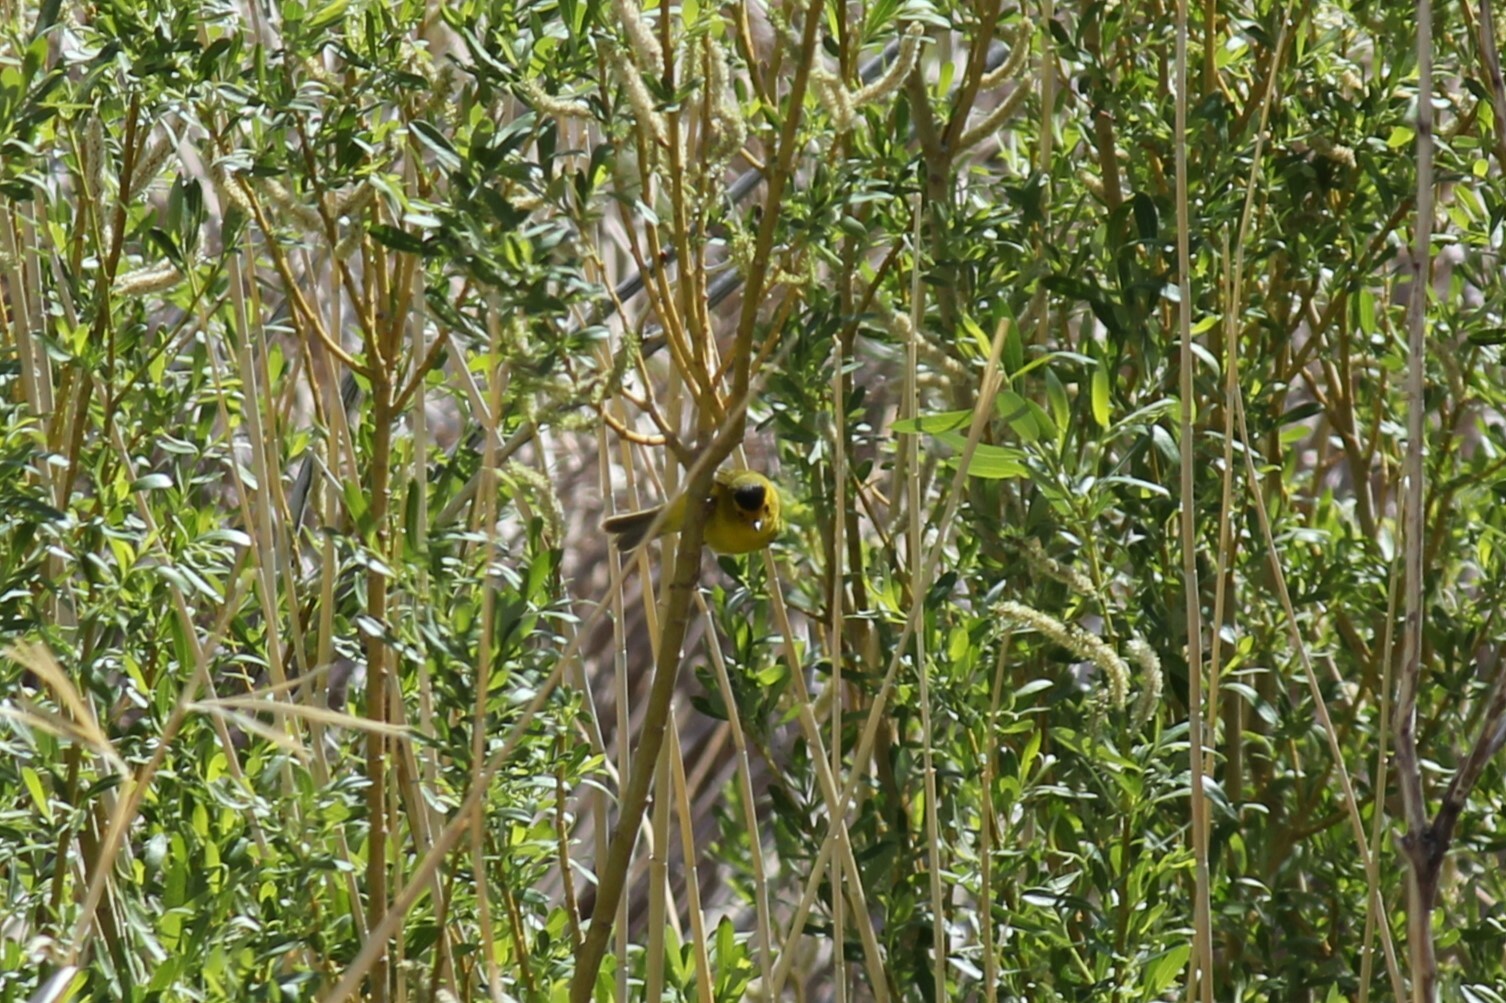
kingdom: Animalia
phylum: Chordata
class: Aves
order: Passeriformes
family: Parulidae
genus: Cardellina
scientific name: Cardellina pusilla
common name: Wilson's warbler
